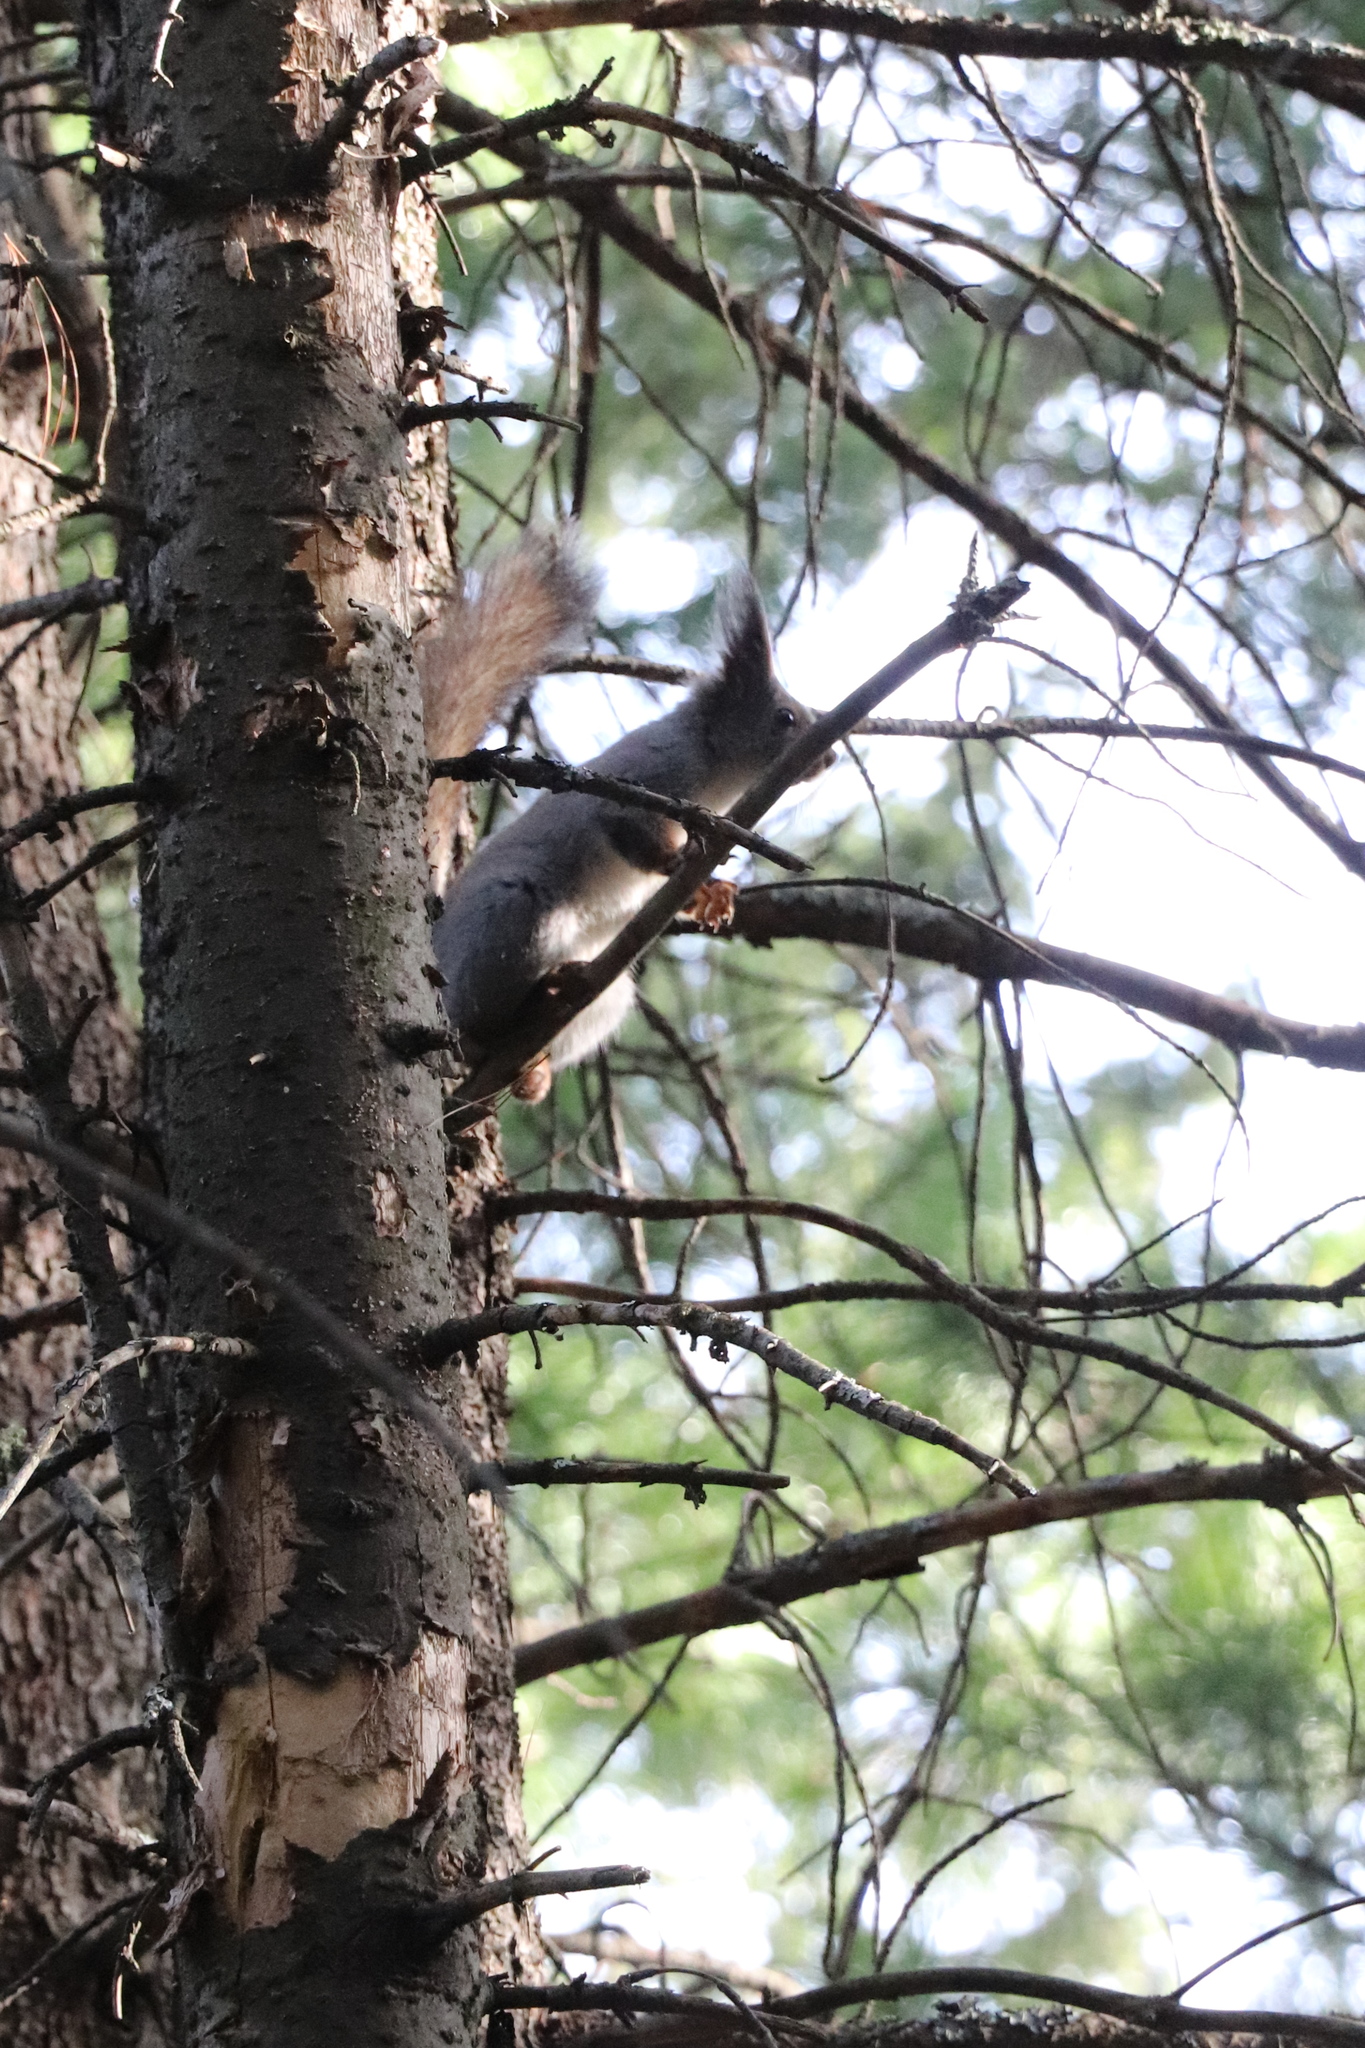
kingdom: Animalia
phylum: Chordata
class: Mammalia
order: Rodentia
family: Sciuridae
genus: Sciurus
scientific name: Sciurus vulgaris
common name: Eurasian red squirrel
